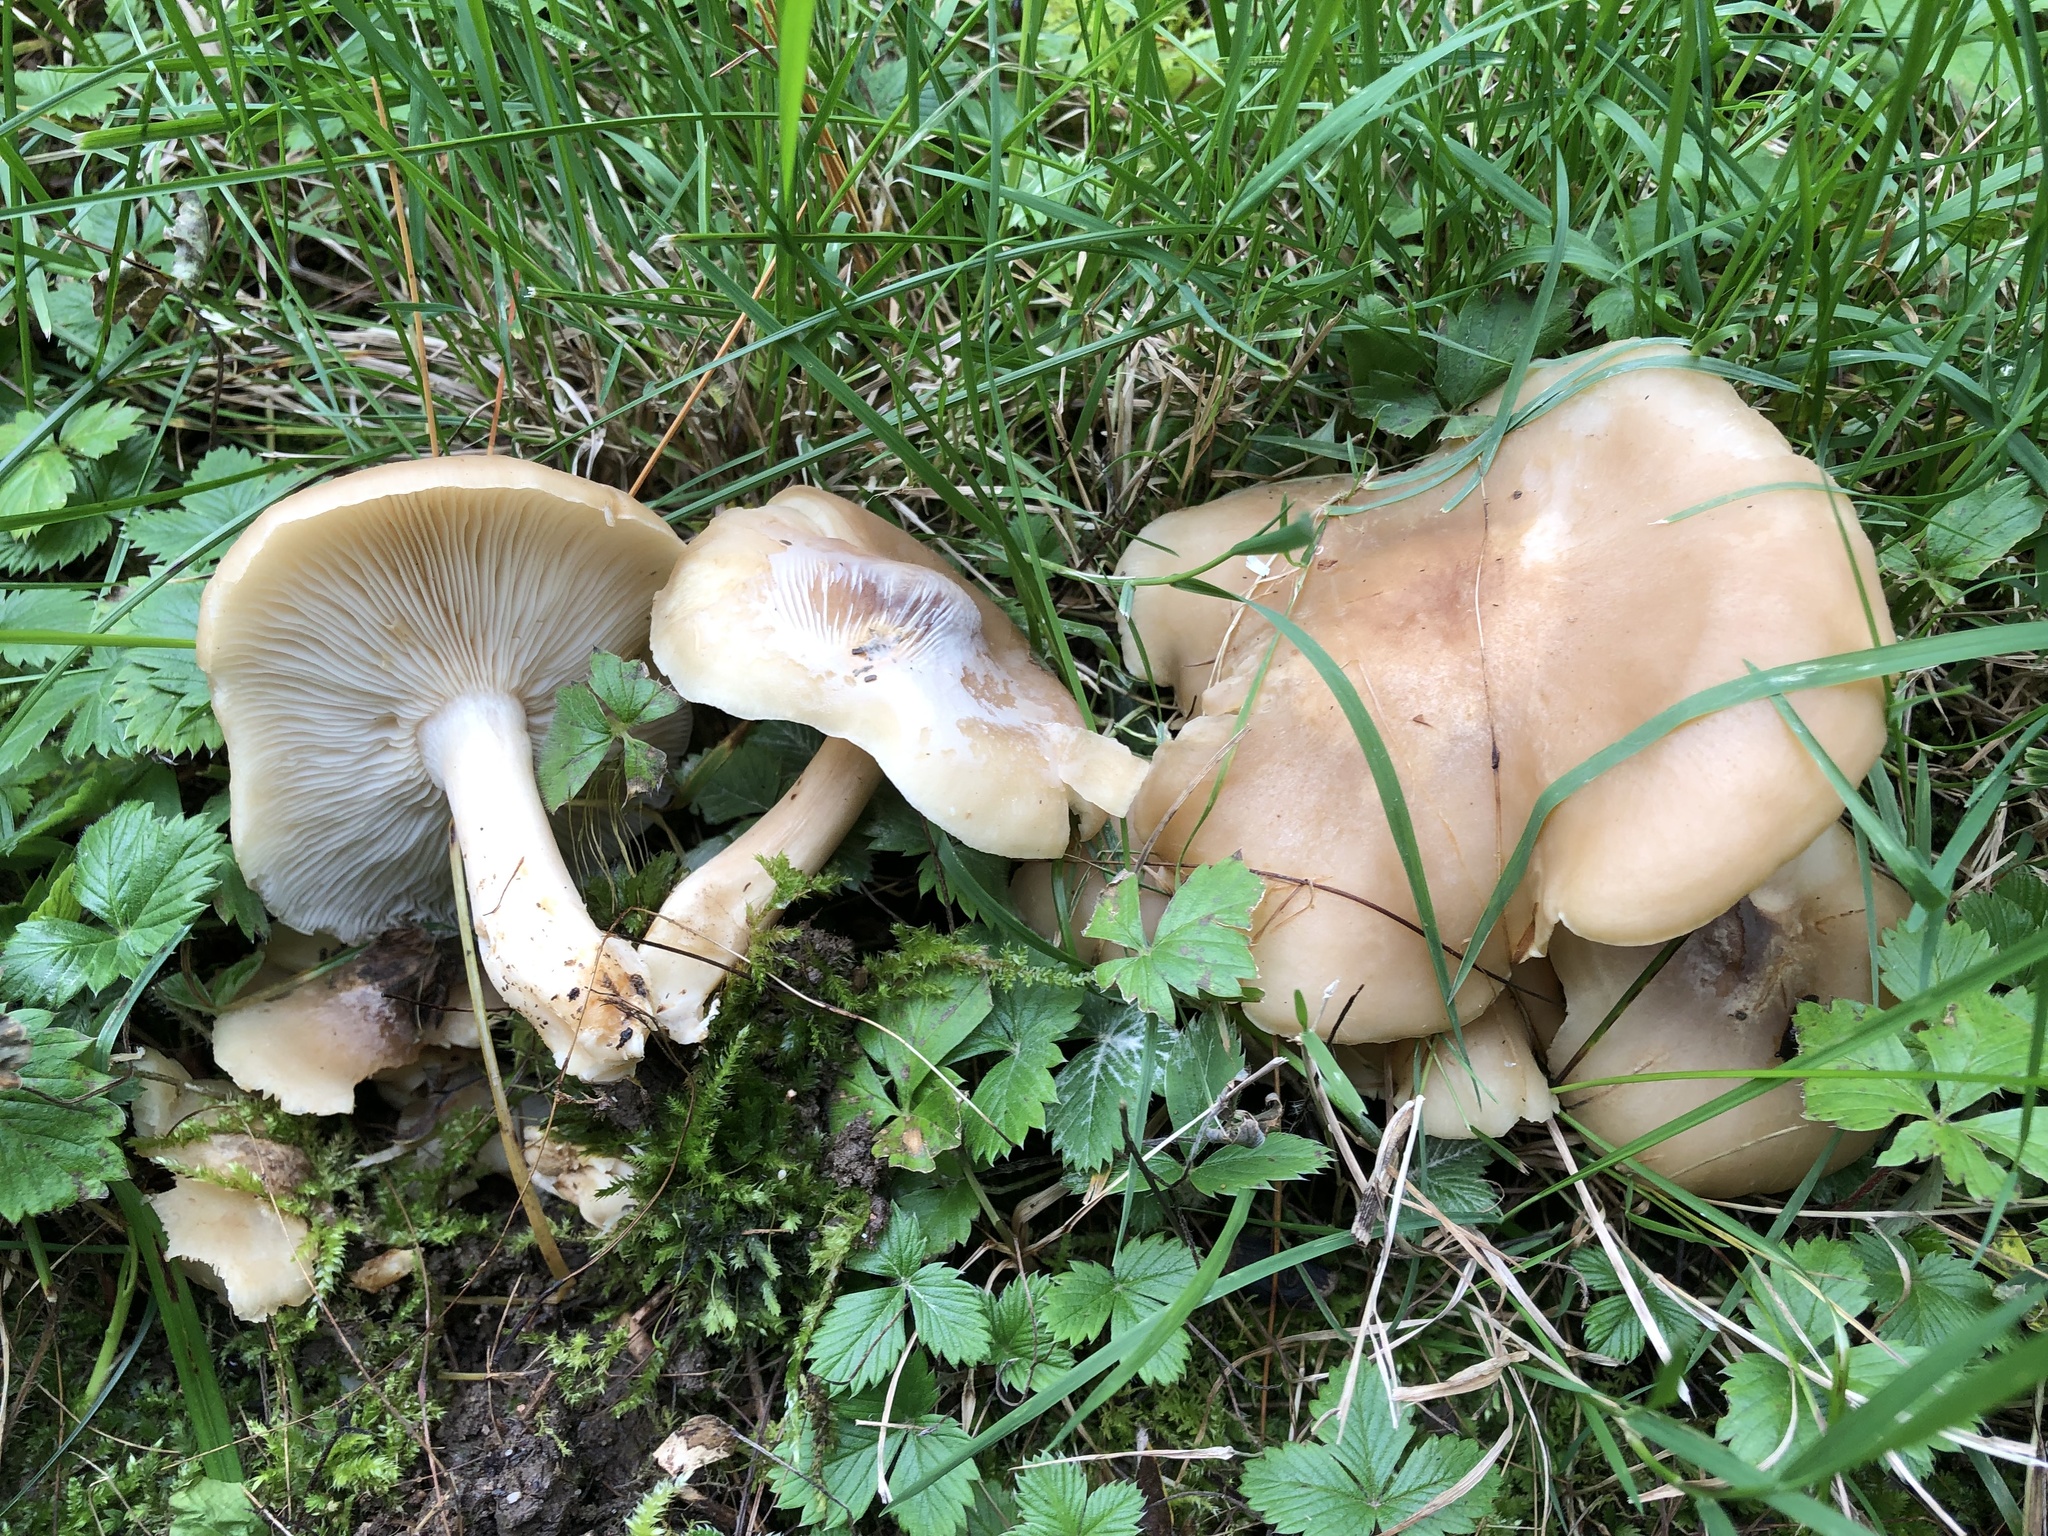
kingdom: Fungi
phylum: Basidiomycota
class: Agaricomycetes
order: Agaricales
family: Lyophyllaceae
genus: Lyophyllum
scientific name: Lyophyllum decastes
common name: Clustered domecap
